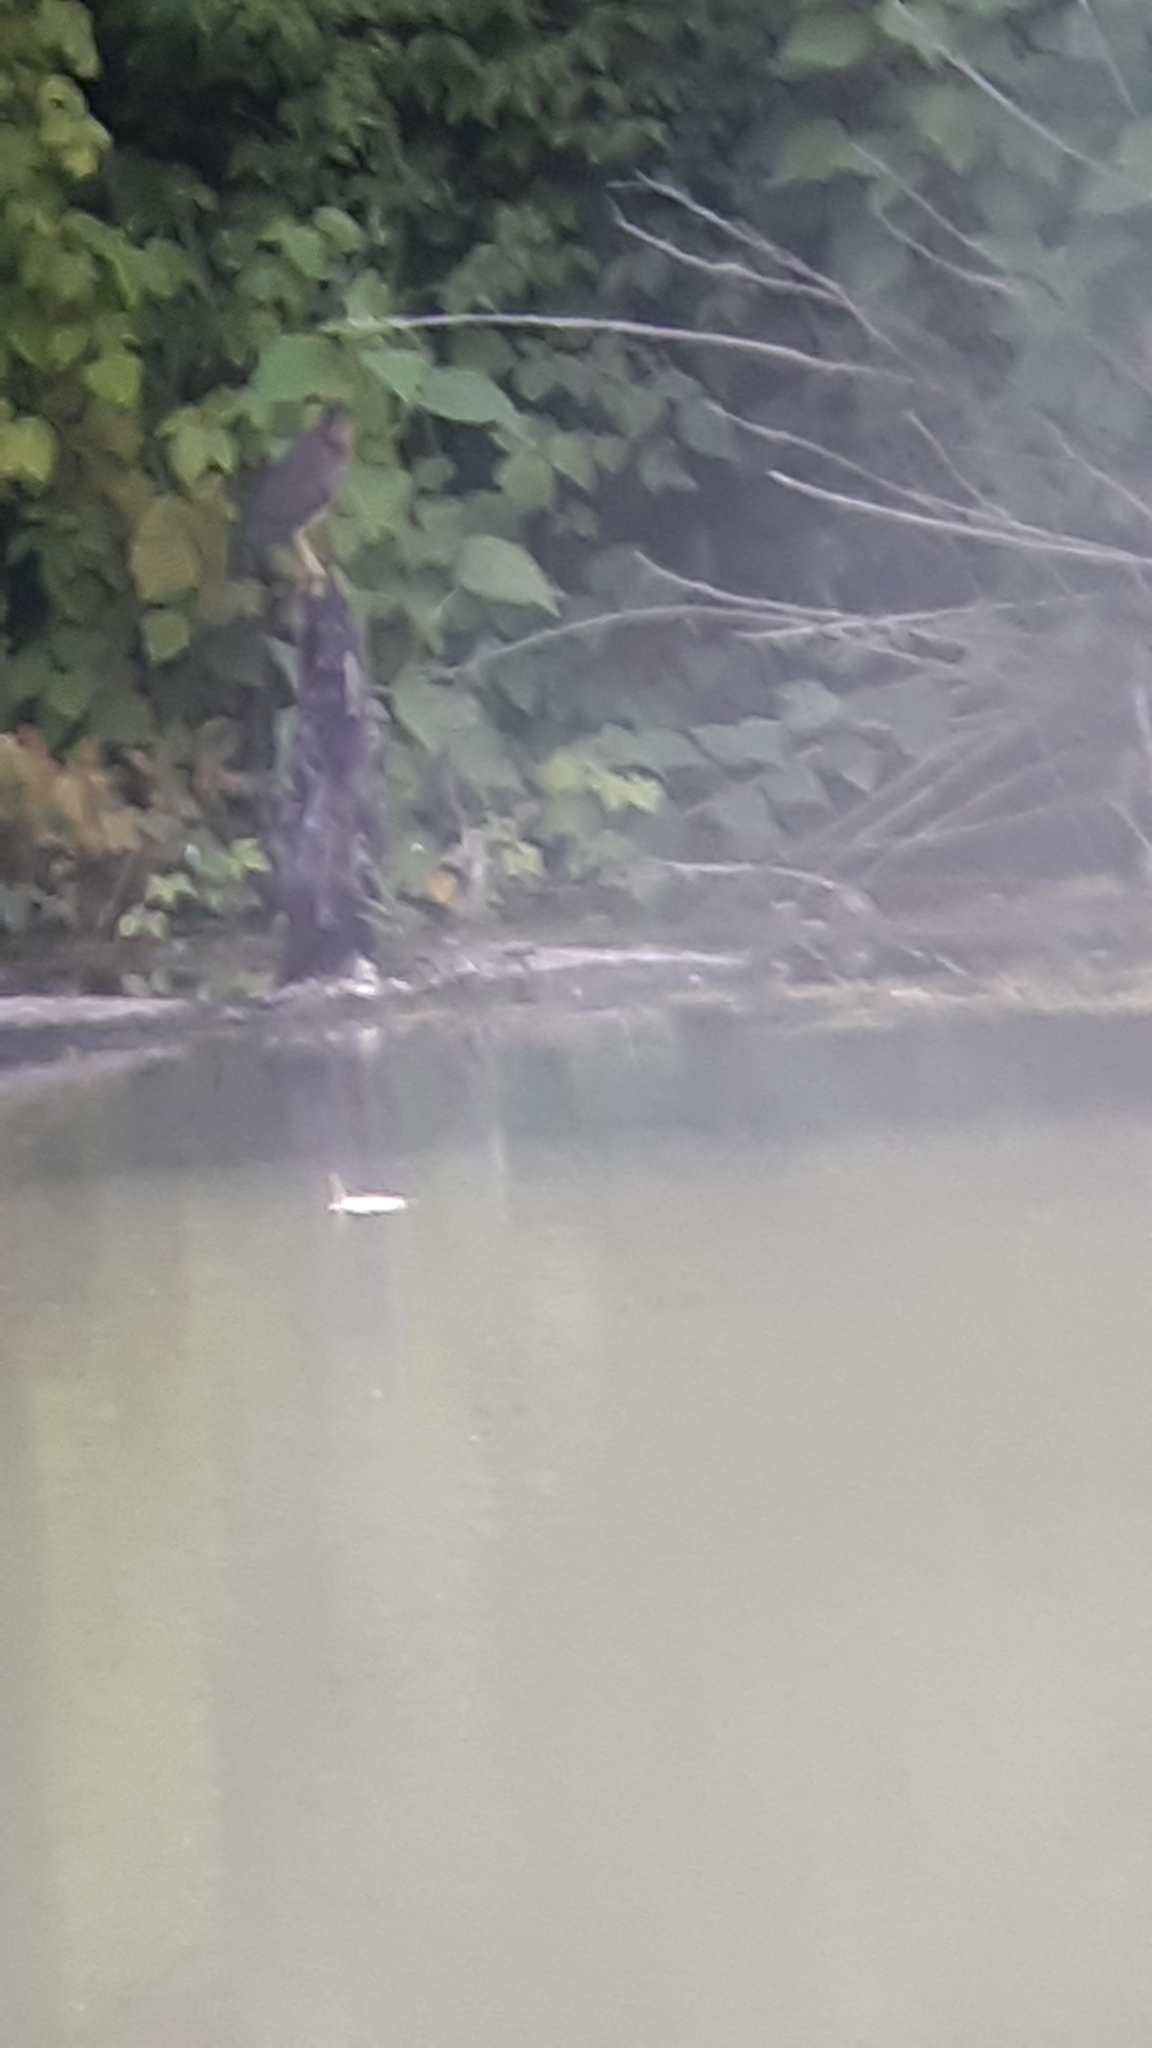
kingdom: Animalia
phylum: Chordata
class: Aves
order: Pelecaniformes
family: Ardeidae
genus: Butorides
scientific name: Butorides virescens
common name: Green heron
